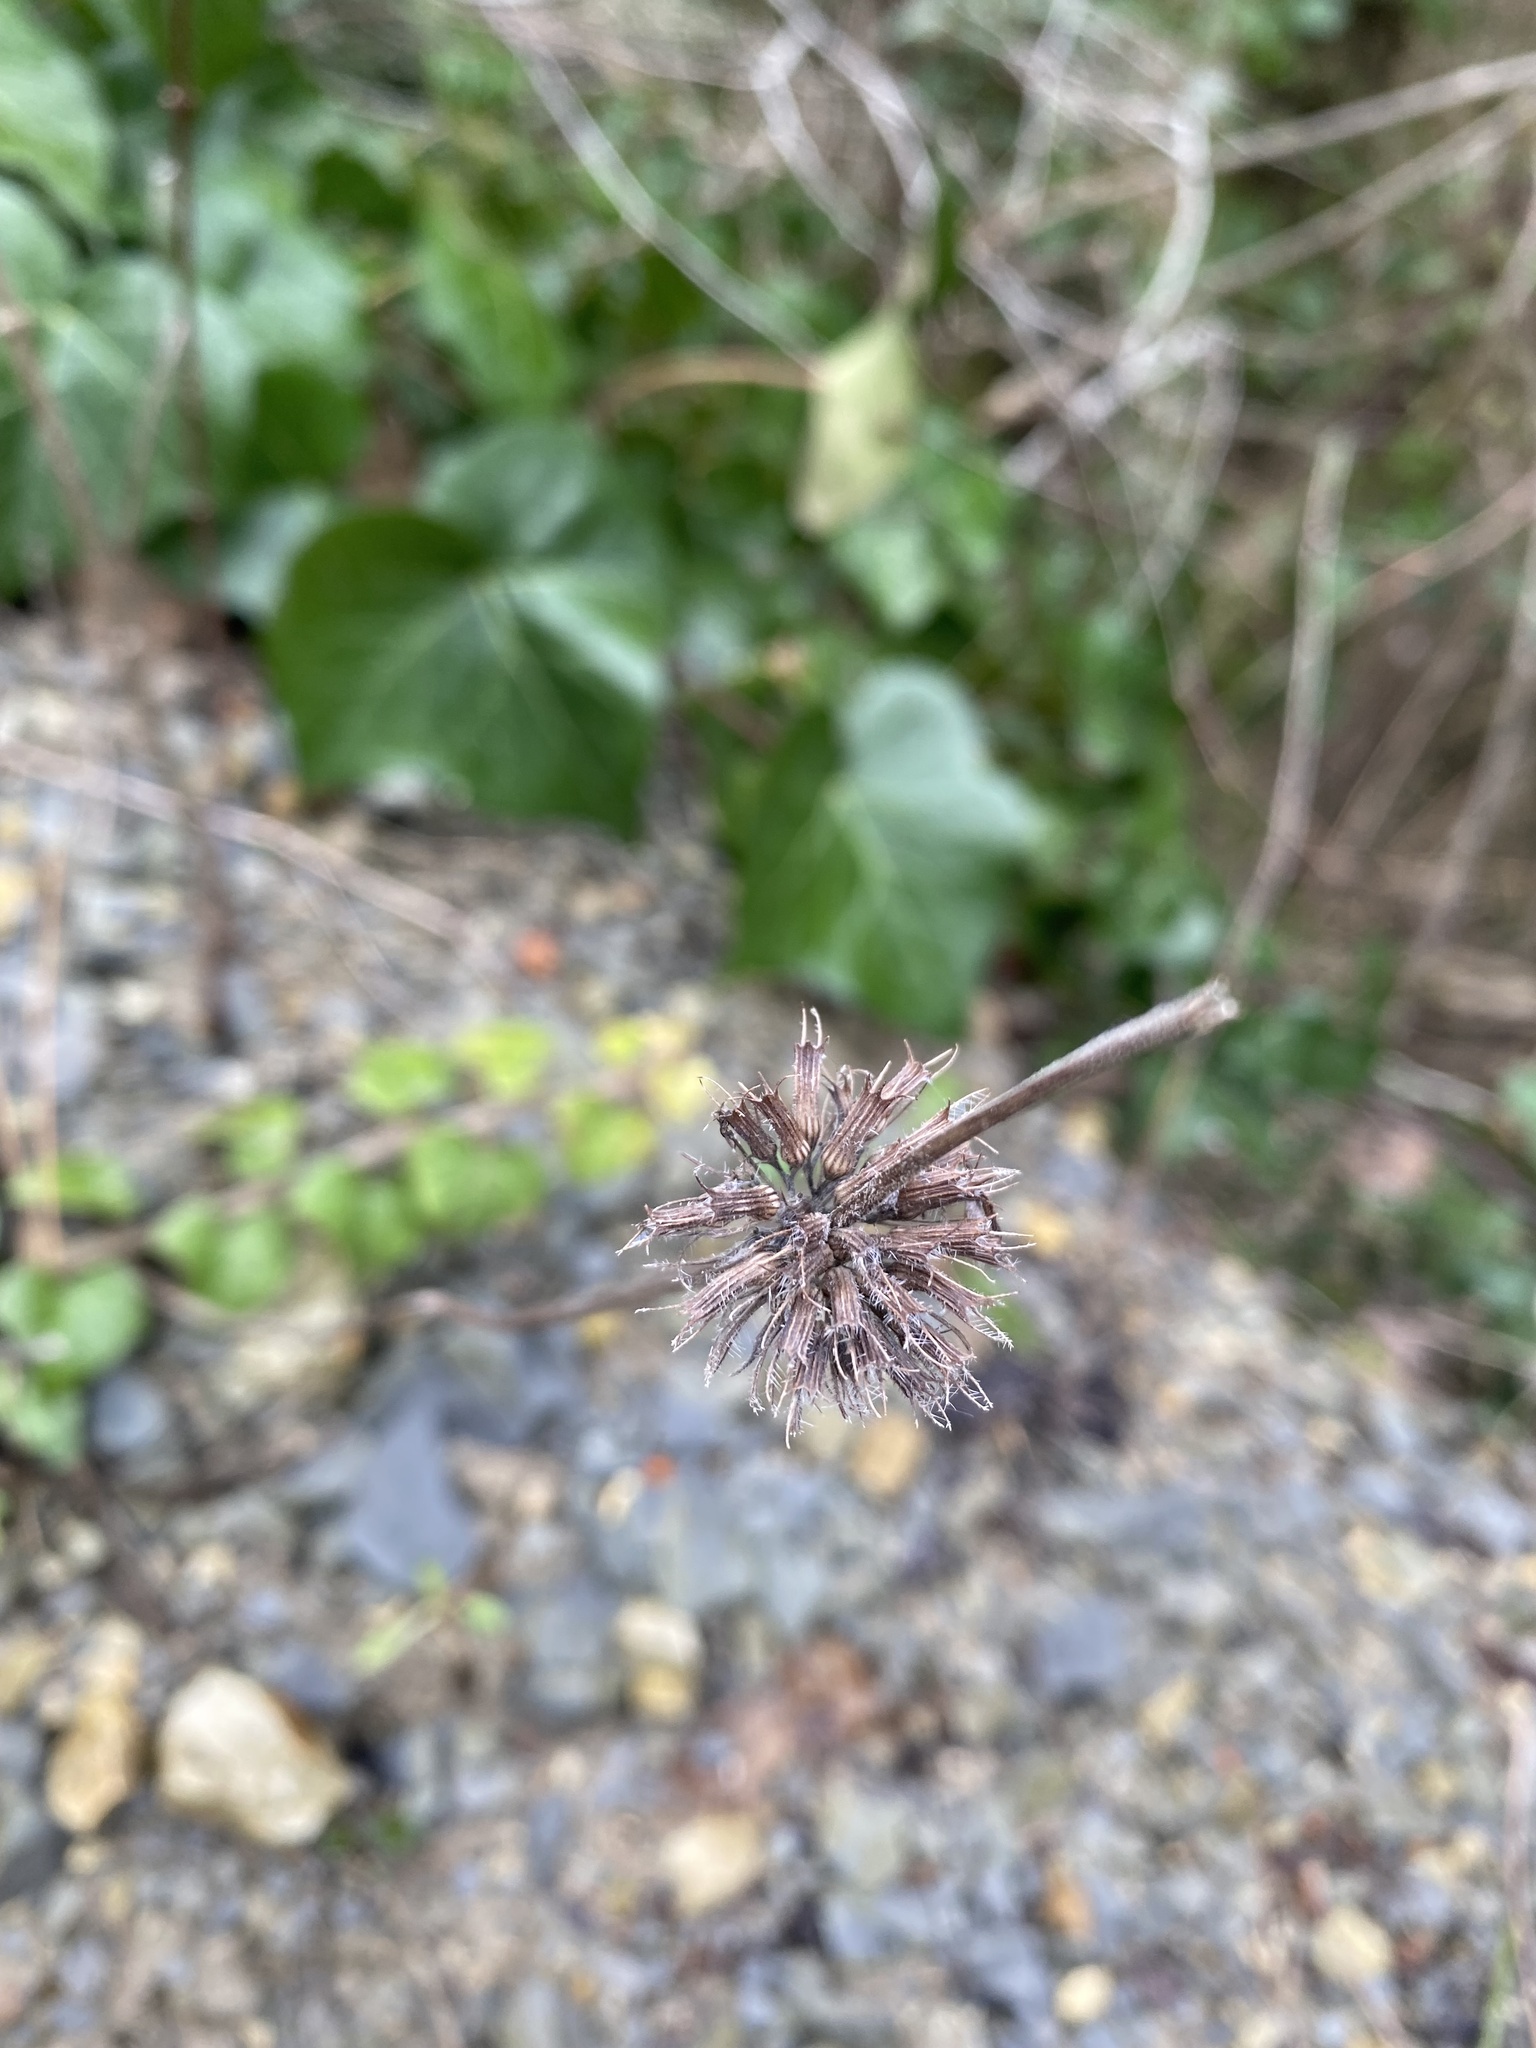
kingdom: Plantae
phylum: Tracheophyta
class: Magnoliopsida
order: Lamiales
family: Lamiaceae
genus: Clinopodium
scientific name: Clinopodium caucasicum
